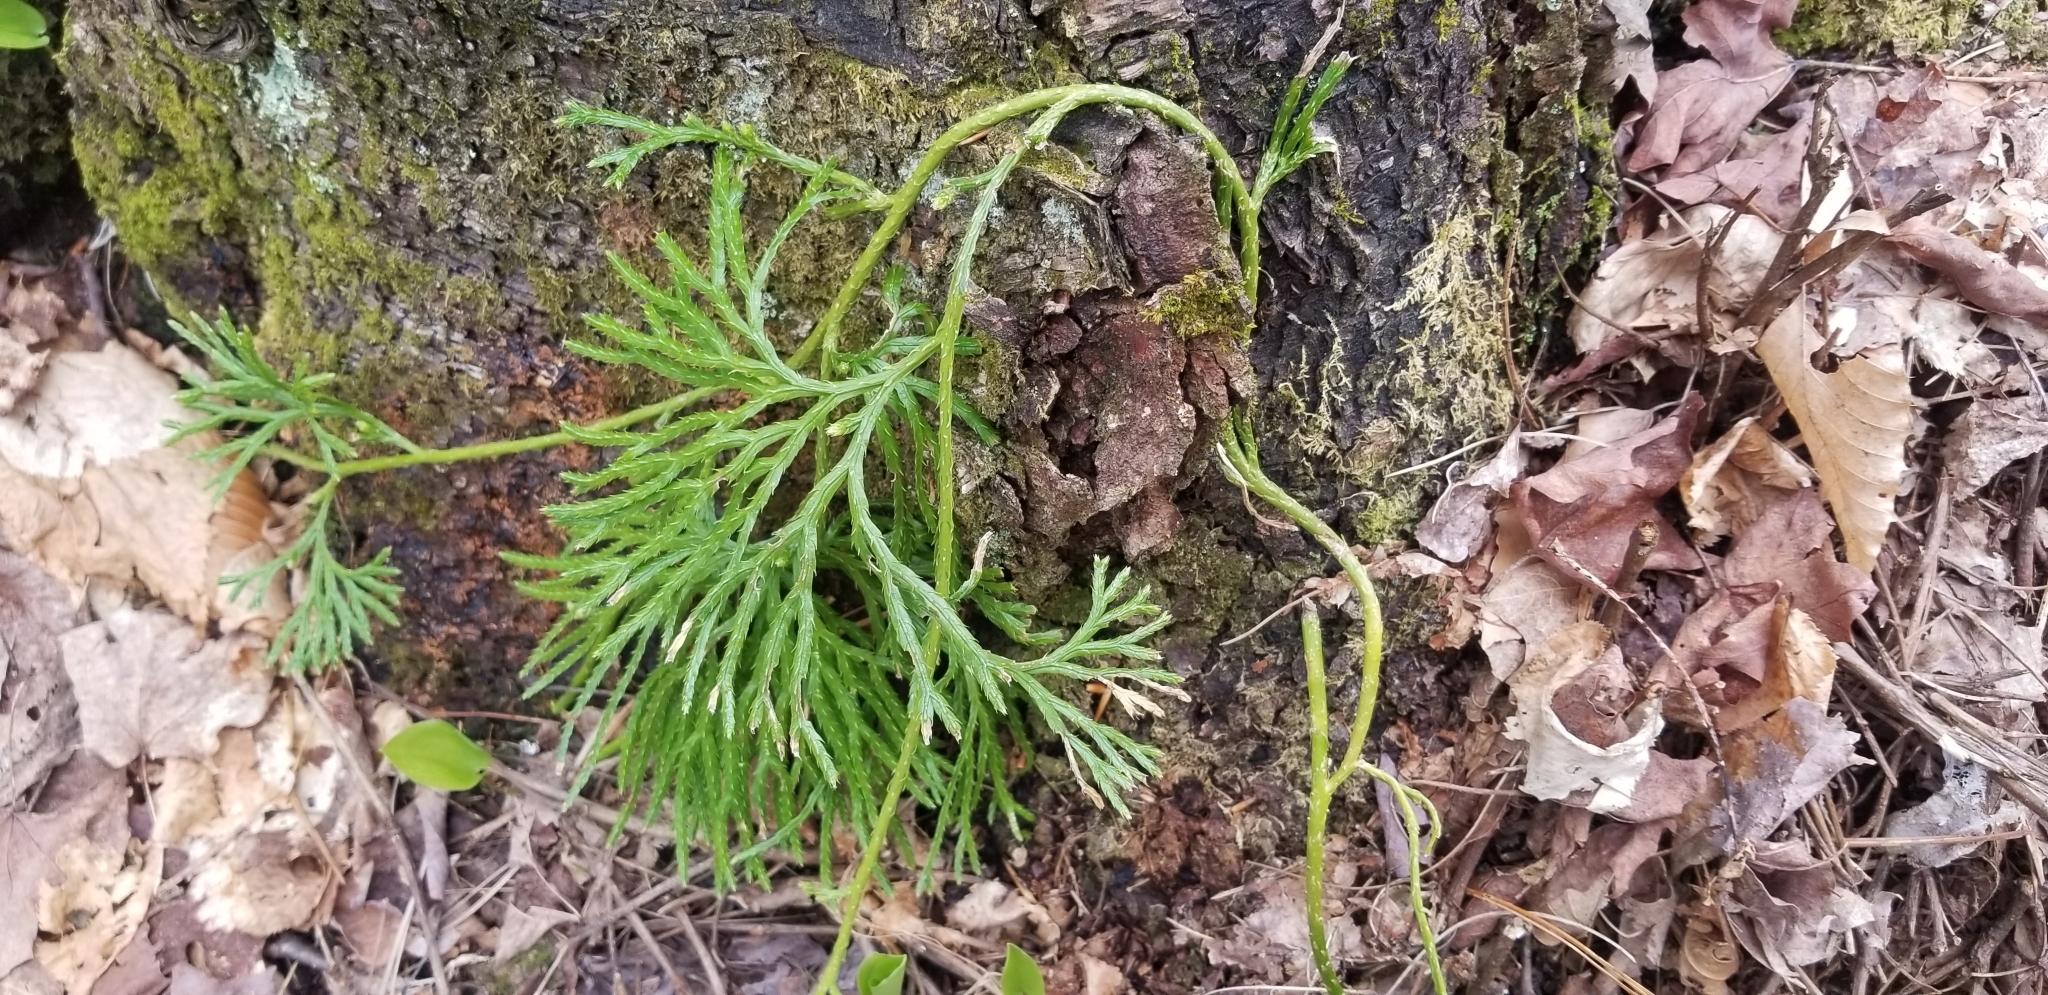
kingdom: Plantae
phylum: Tracheophyta
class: Lycopodiopsida
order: Lycopodiales
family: Lycopodiaceae
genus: Diphasiastrum
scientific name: Diphasiastrum digitatum
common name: Southern running-pine
